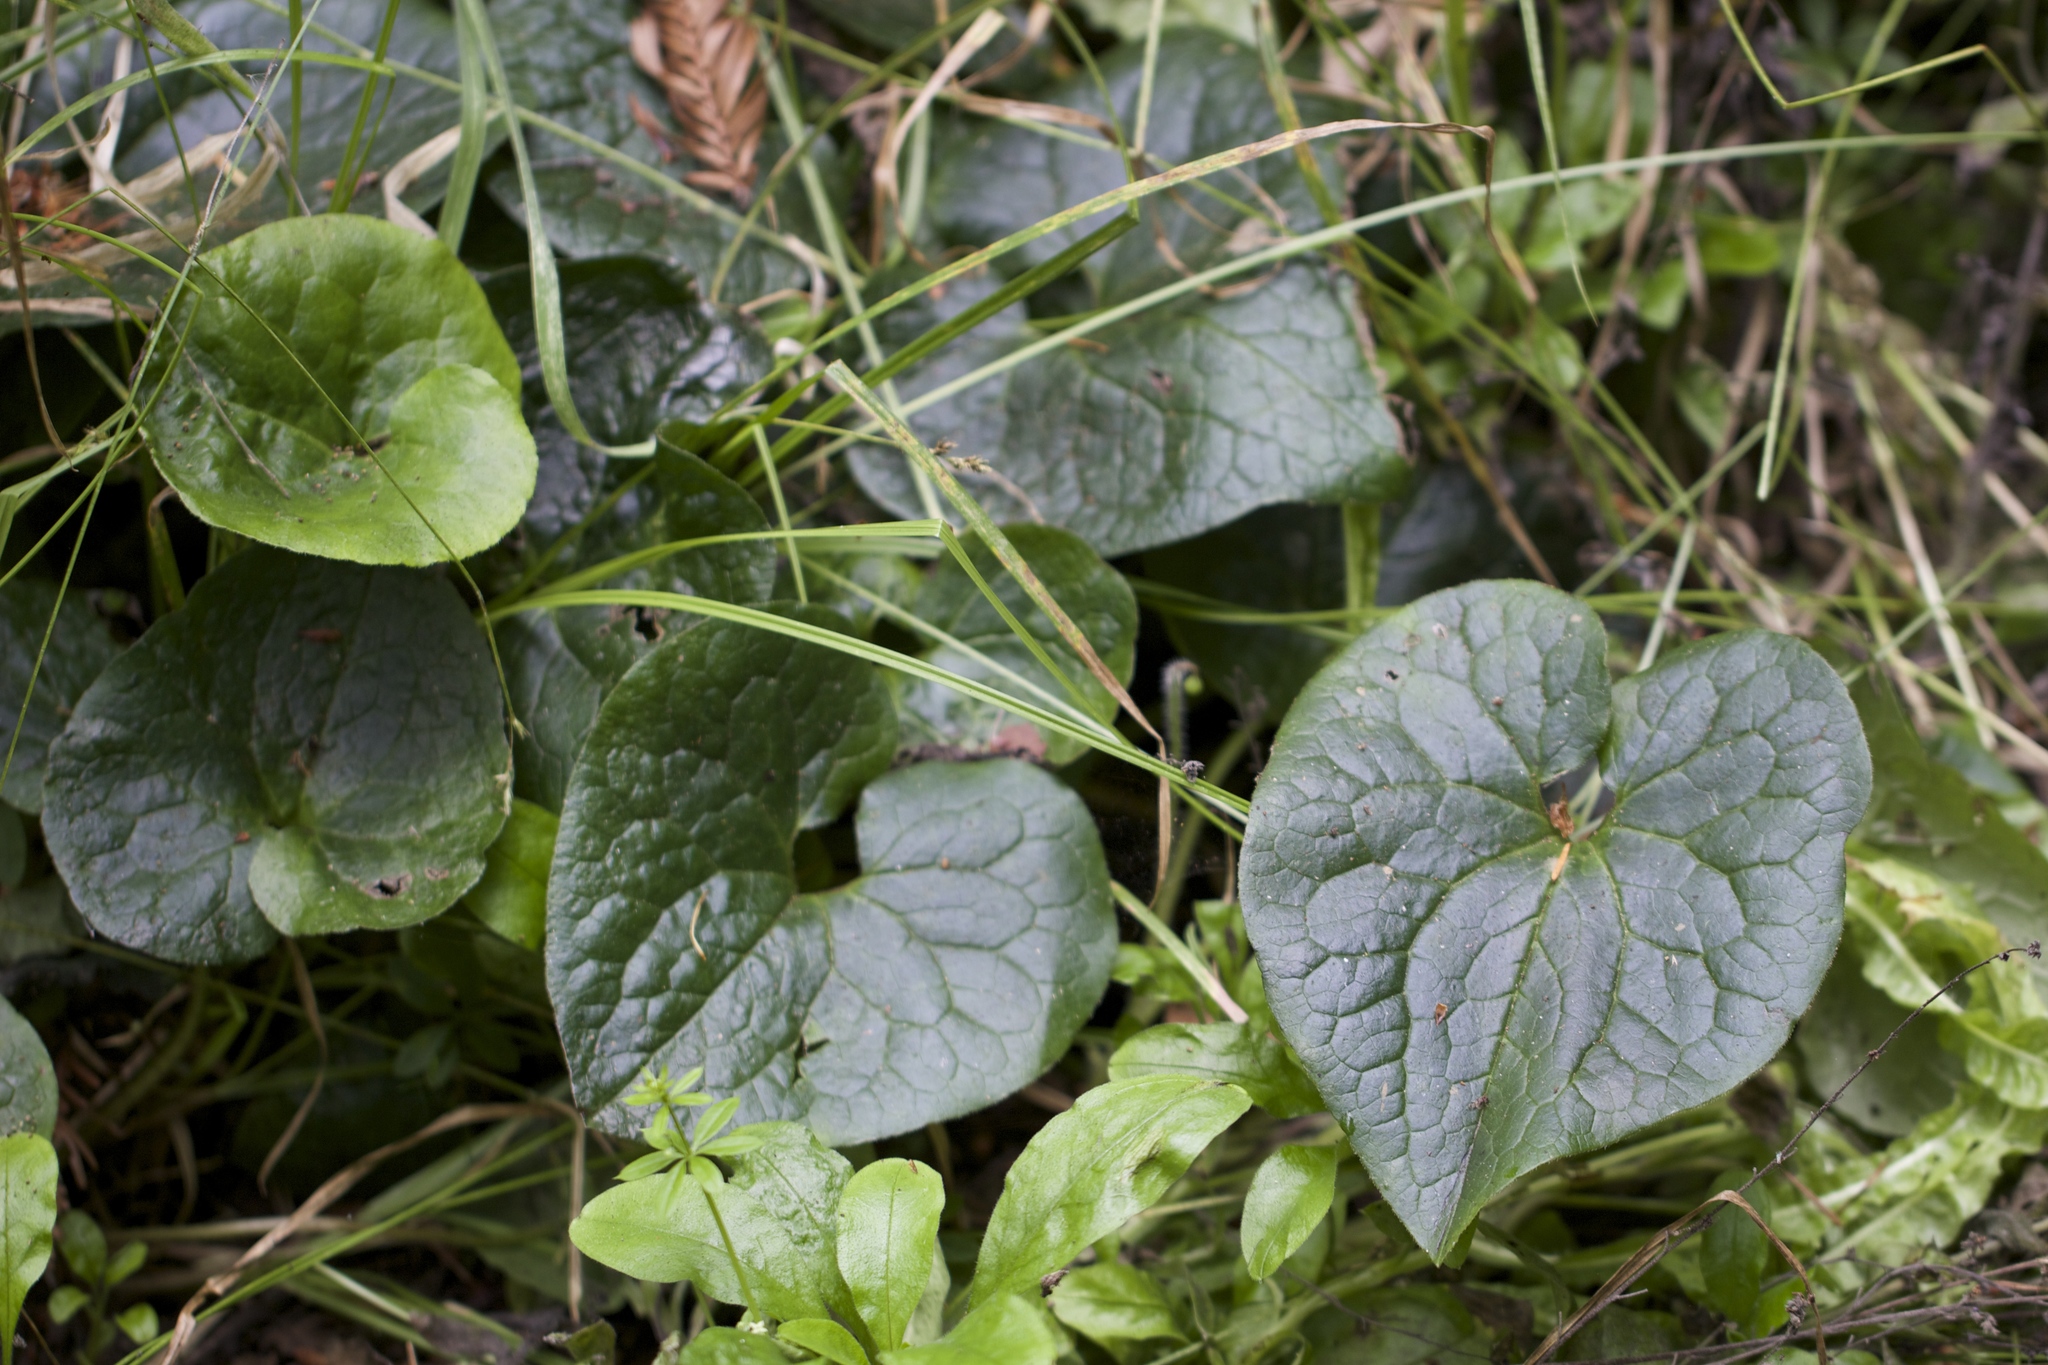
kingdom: Plantae
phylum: Tracheophyta
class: Magnoliopsida
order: Piperales
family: Aristolochiaceae
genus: Asarum
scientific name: Asarum caudatum
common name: Wild ginger
